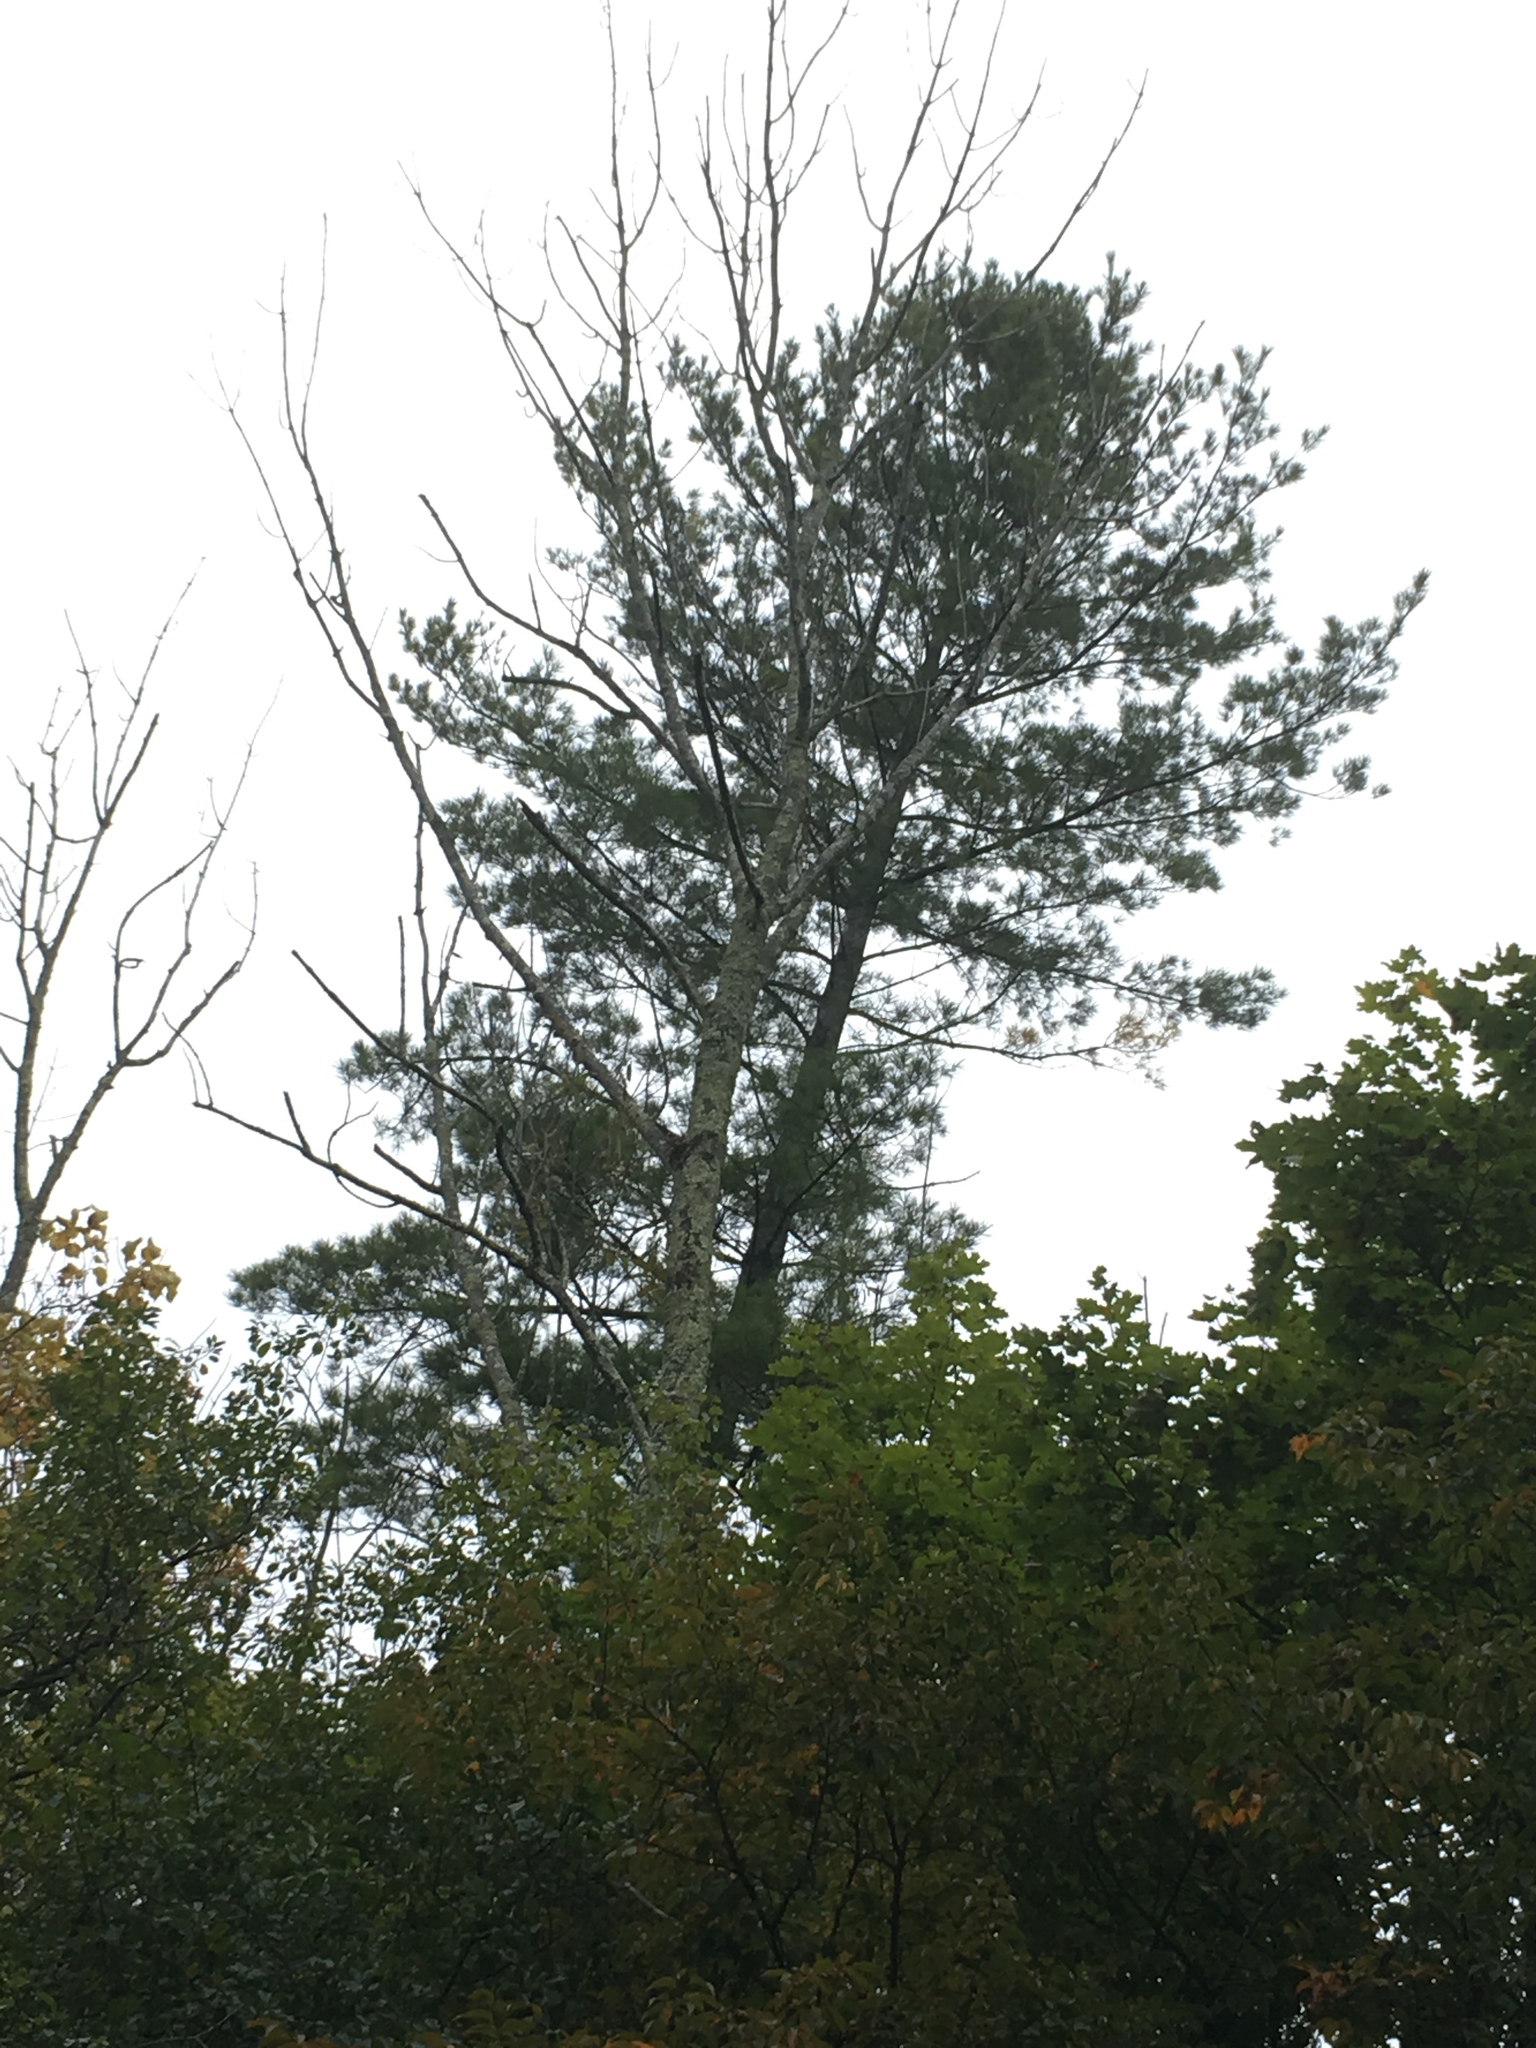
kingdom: Plantae
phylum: Tracheophyta
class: Pinopsida
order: Pinales
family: Pinaceae
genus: Pinus
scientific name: Pinus strobus
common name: Weymouth pine
